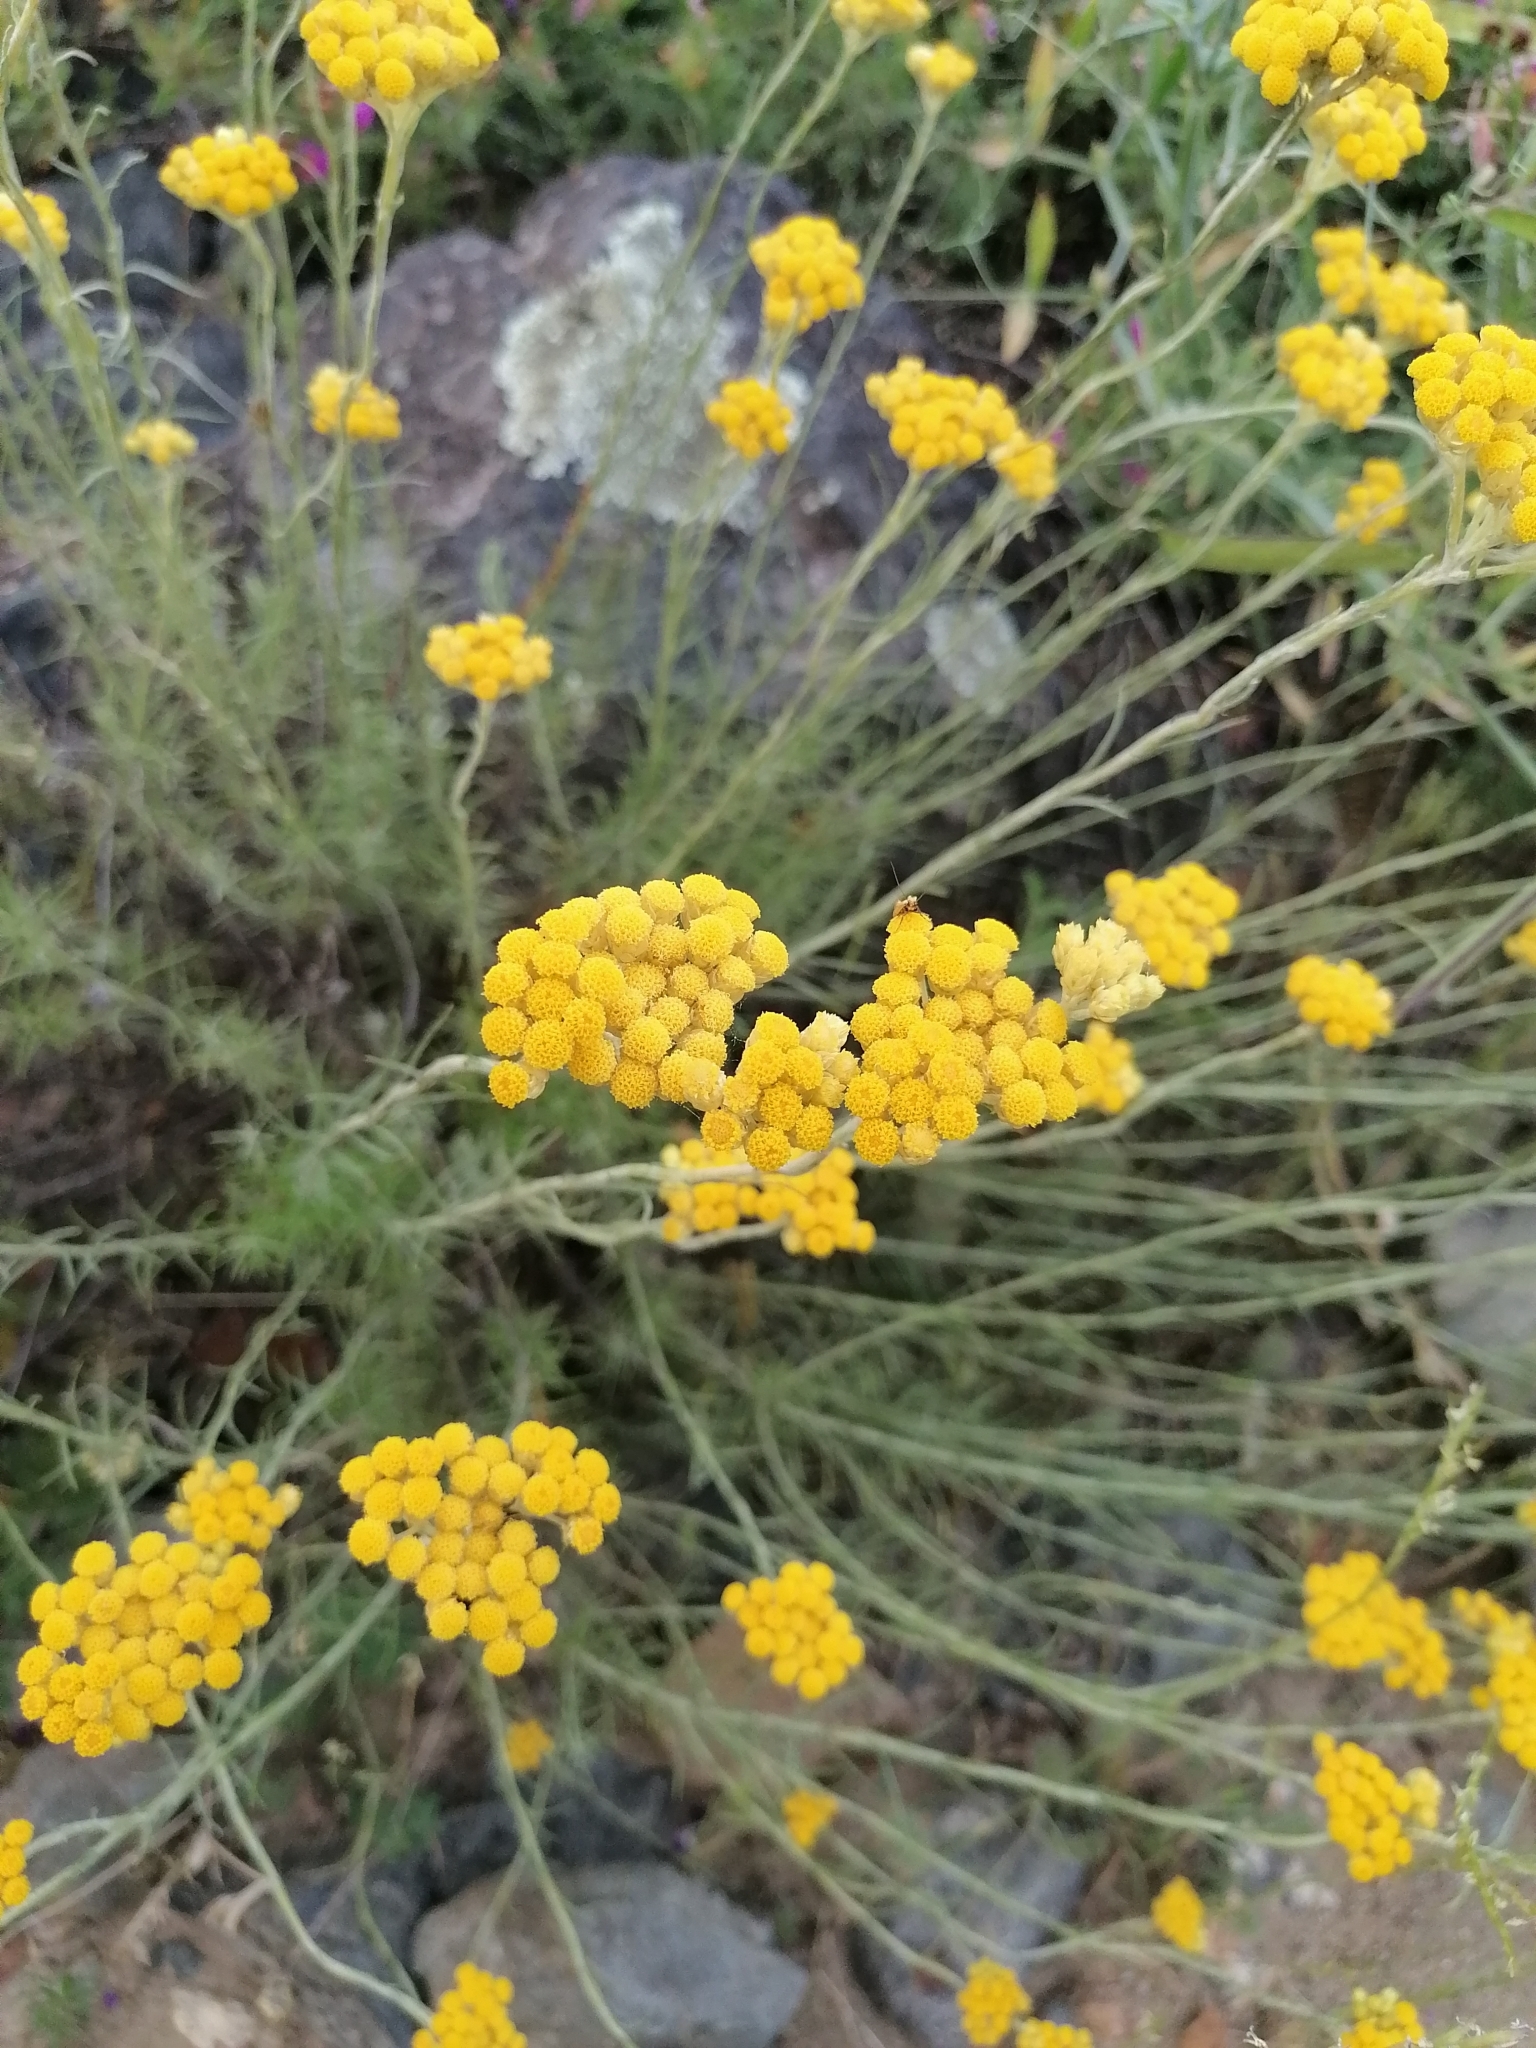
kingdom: Plantae
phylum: Tracheophyta
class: Magnoliopsida
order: Asterales
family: Asteraceae
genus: Helichrysum
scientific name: Helichrysum stoechas
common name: Goldilocks
